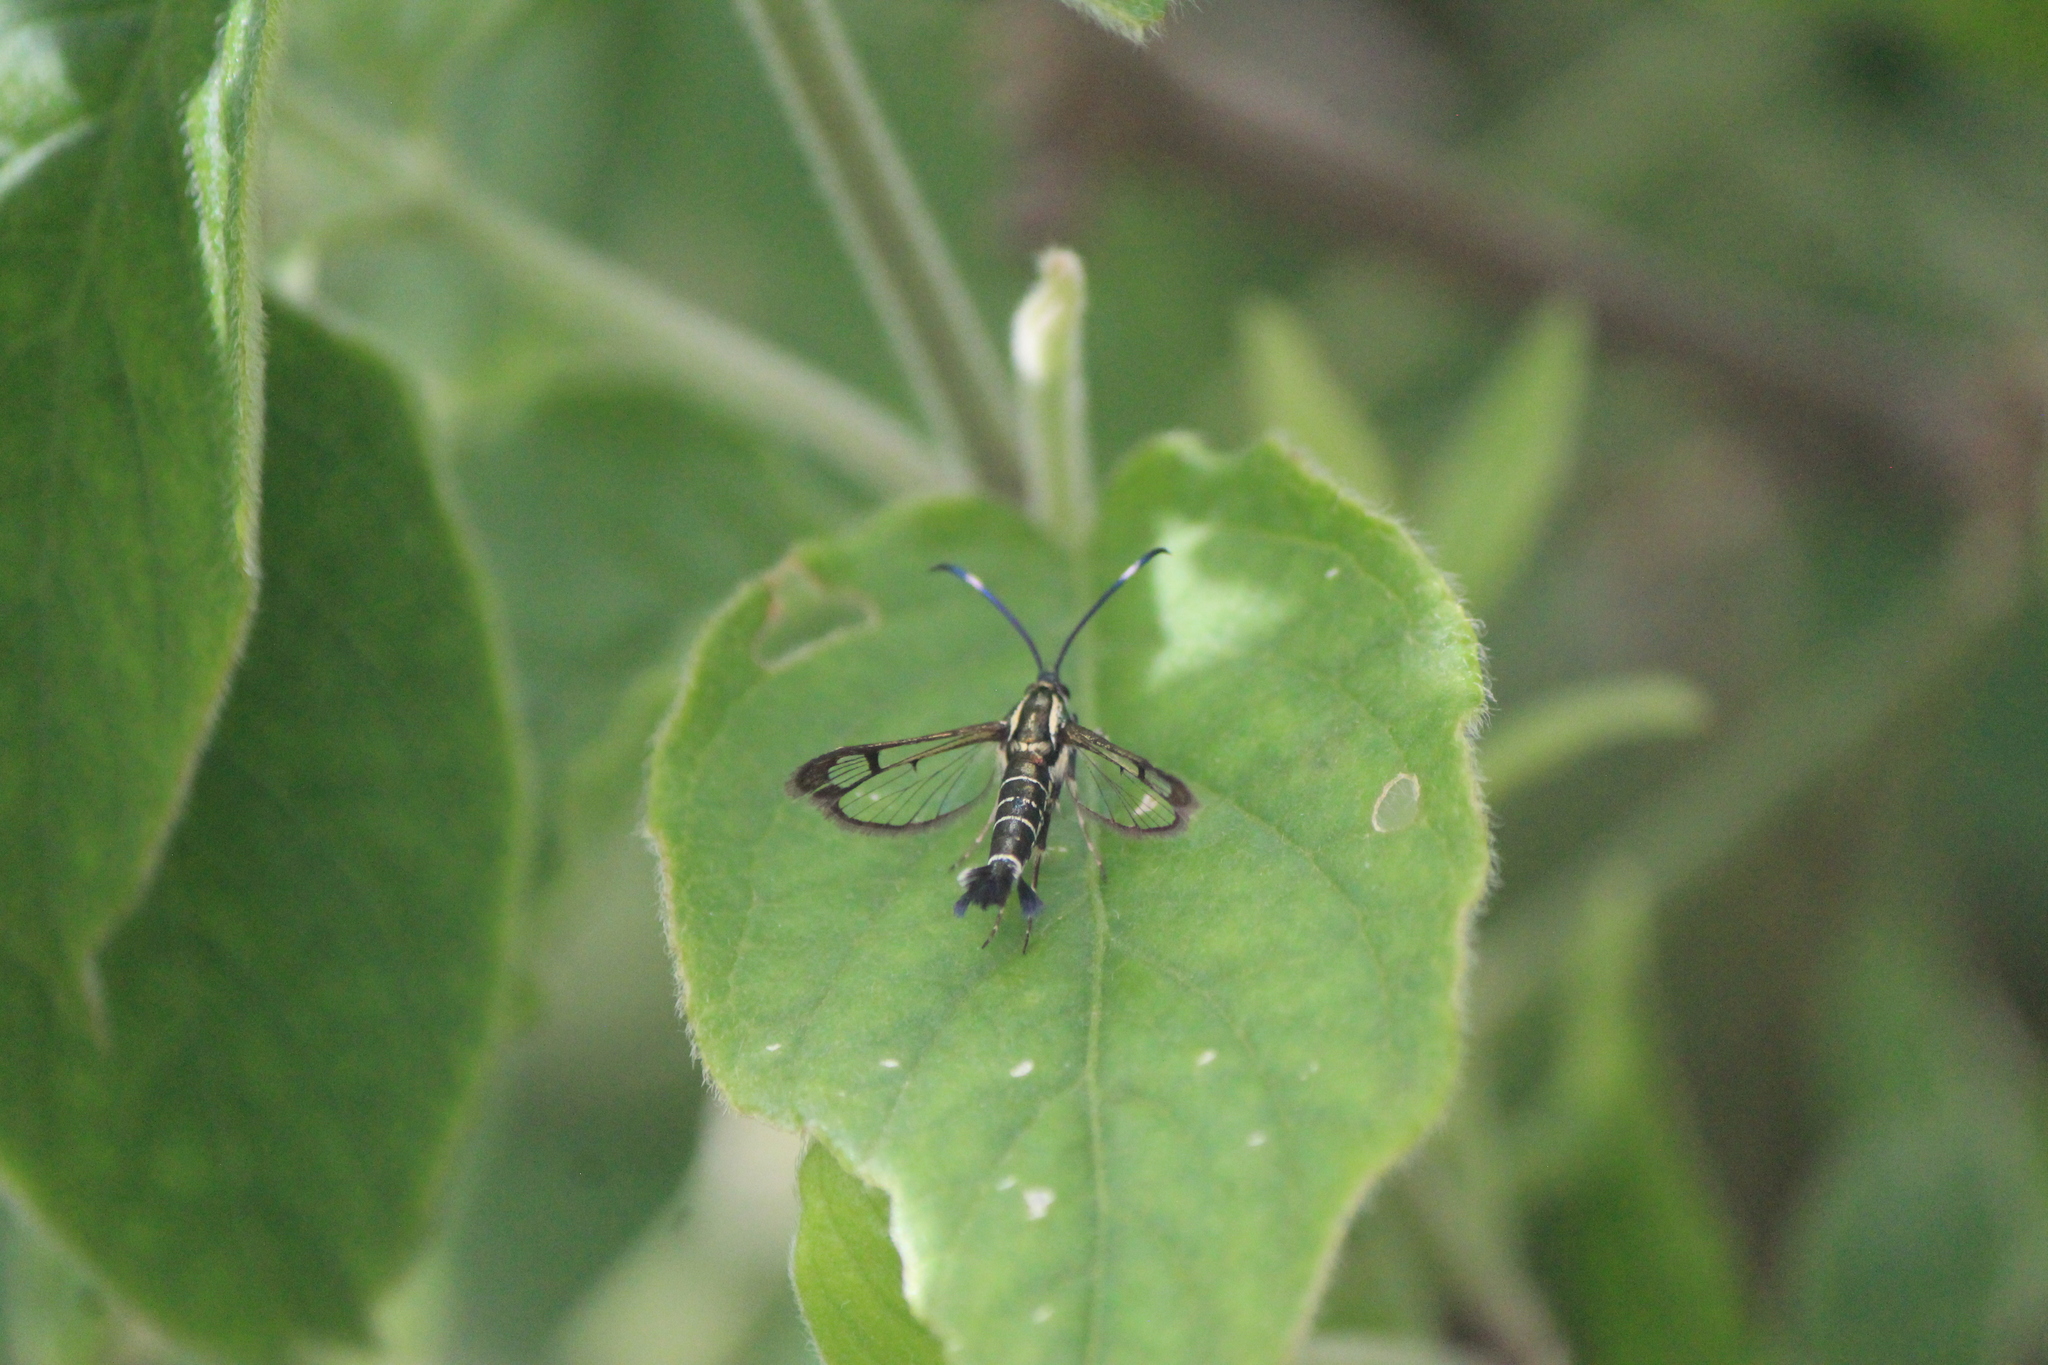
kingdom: Animalia
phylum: Arthropoda
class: Insecta
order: Lepidoptera
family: Sesiidae
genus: Carmenta
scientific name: Carmenta ithacae
